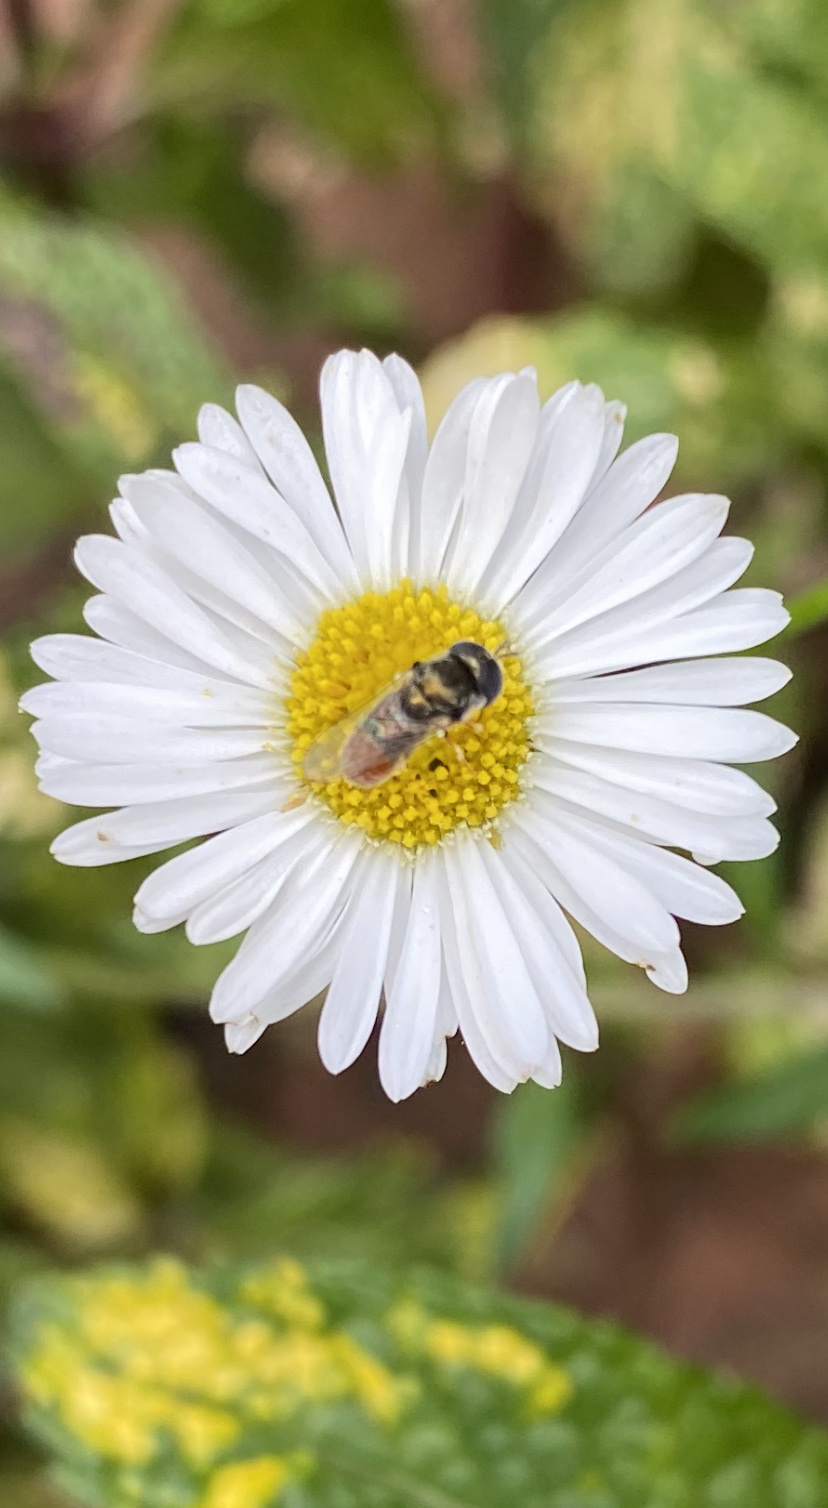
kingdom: Animalia
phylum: Arthropoda
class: Insecta
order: Diptera
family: Syrphidae
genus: Paragus
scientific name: Paragus haemorrhous
